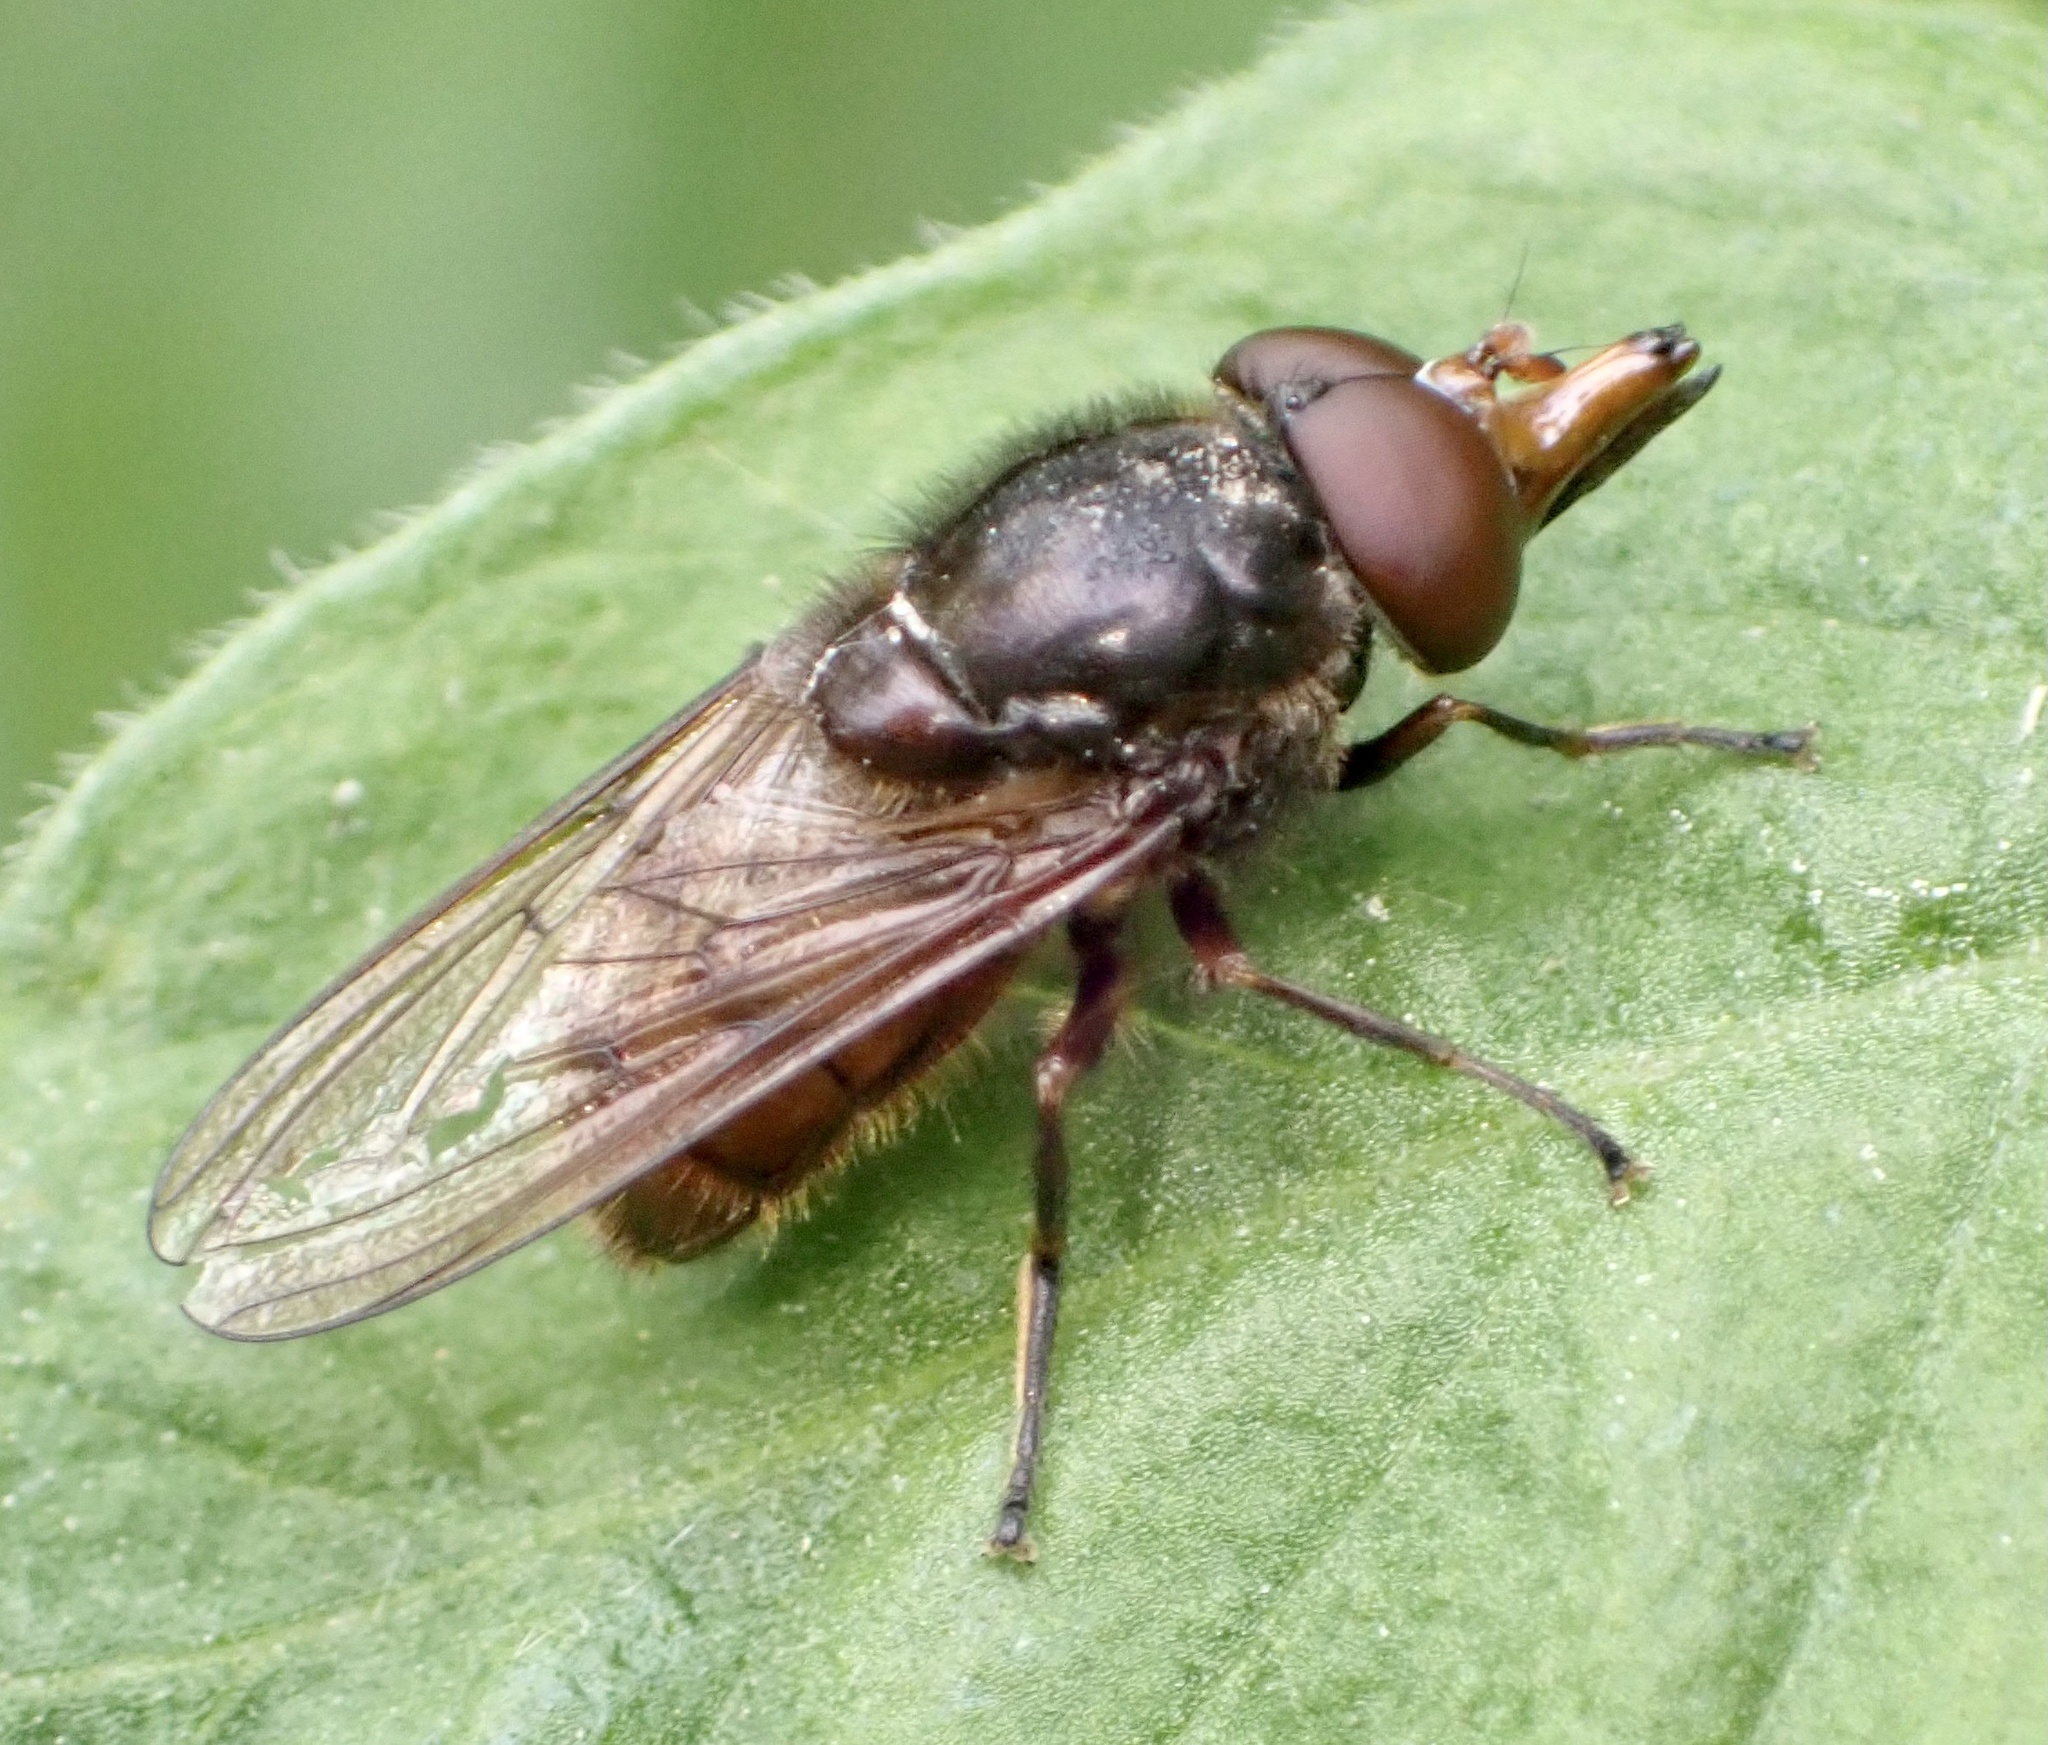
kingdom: Animalia
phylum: Arthropoda
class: Insecta
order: Diptera
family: Syrphidae
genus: Rhingia
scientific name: Rhingia campestris
